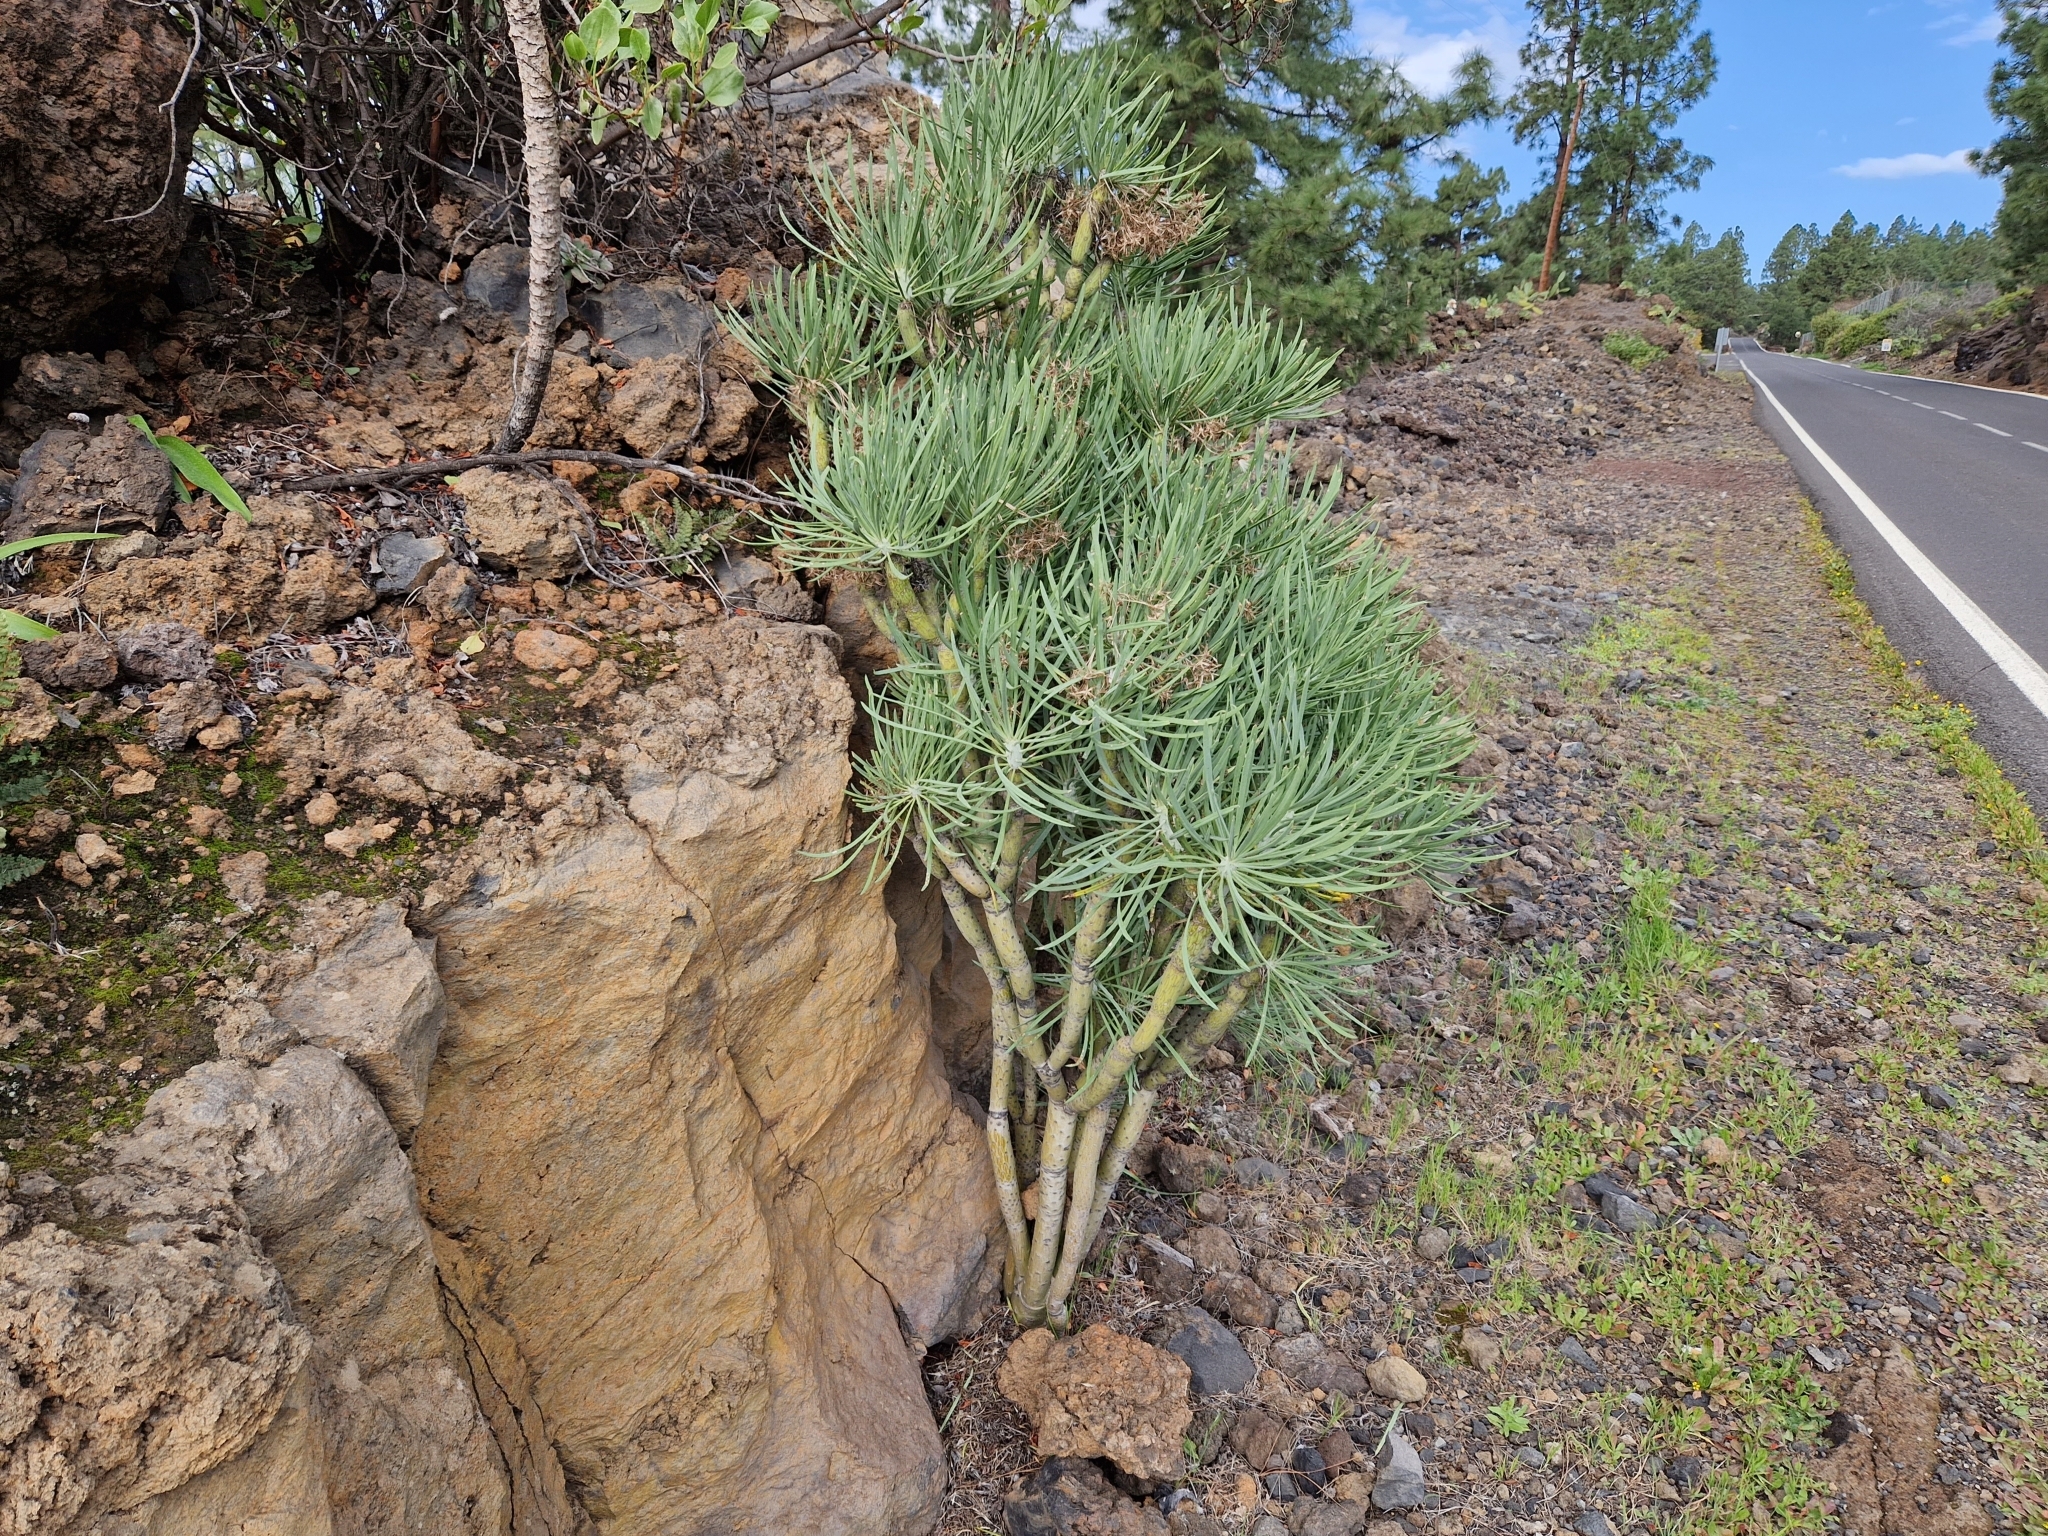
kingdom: Plantae
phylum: Tracheophyta
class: Magnoliopsida
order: Asterales
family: Asteraceae
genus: Kleinia
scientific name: Kleinia neriifolia
